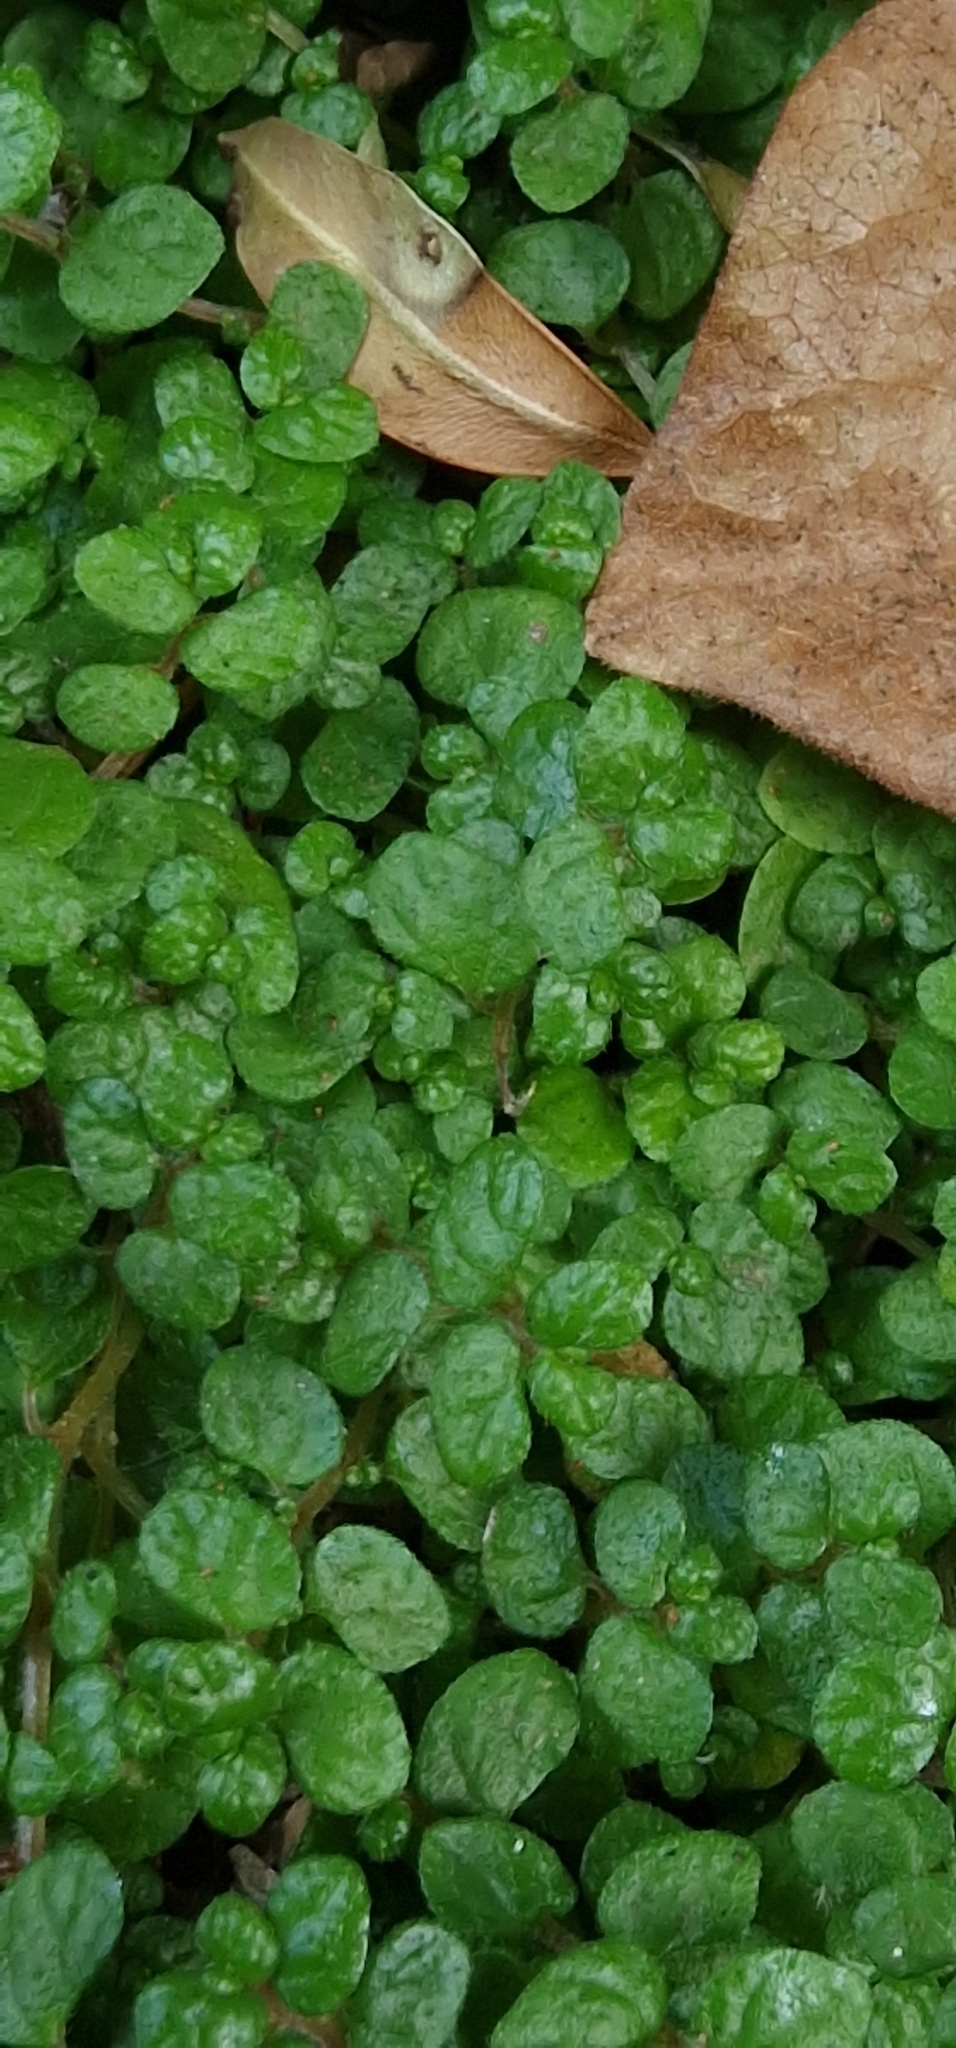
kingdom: Plantae
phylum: Tracheophyta
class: Magnoliopsida
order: Rosales
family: Urticaceae
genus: Soleirolia
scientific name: Soleirolia soleirolii
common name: Mind-your-own-business
